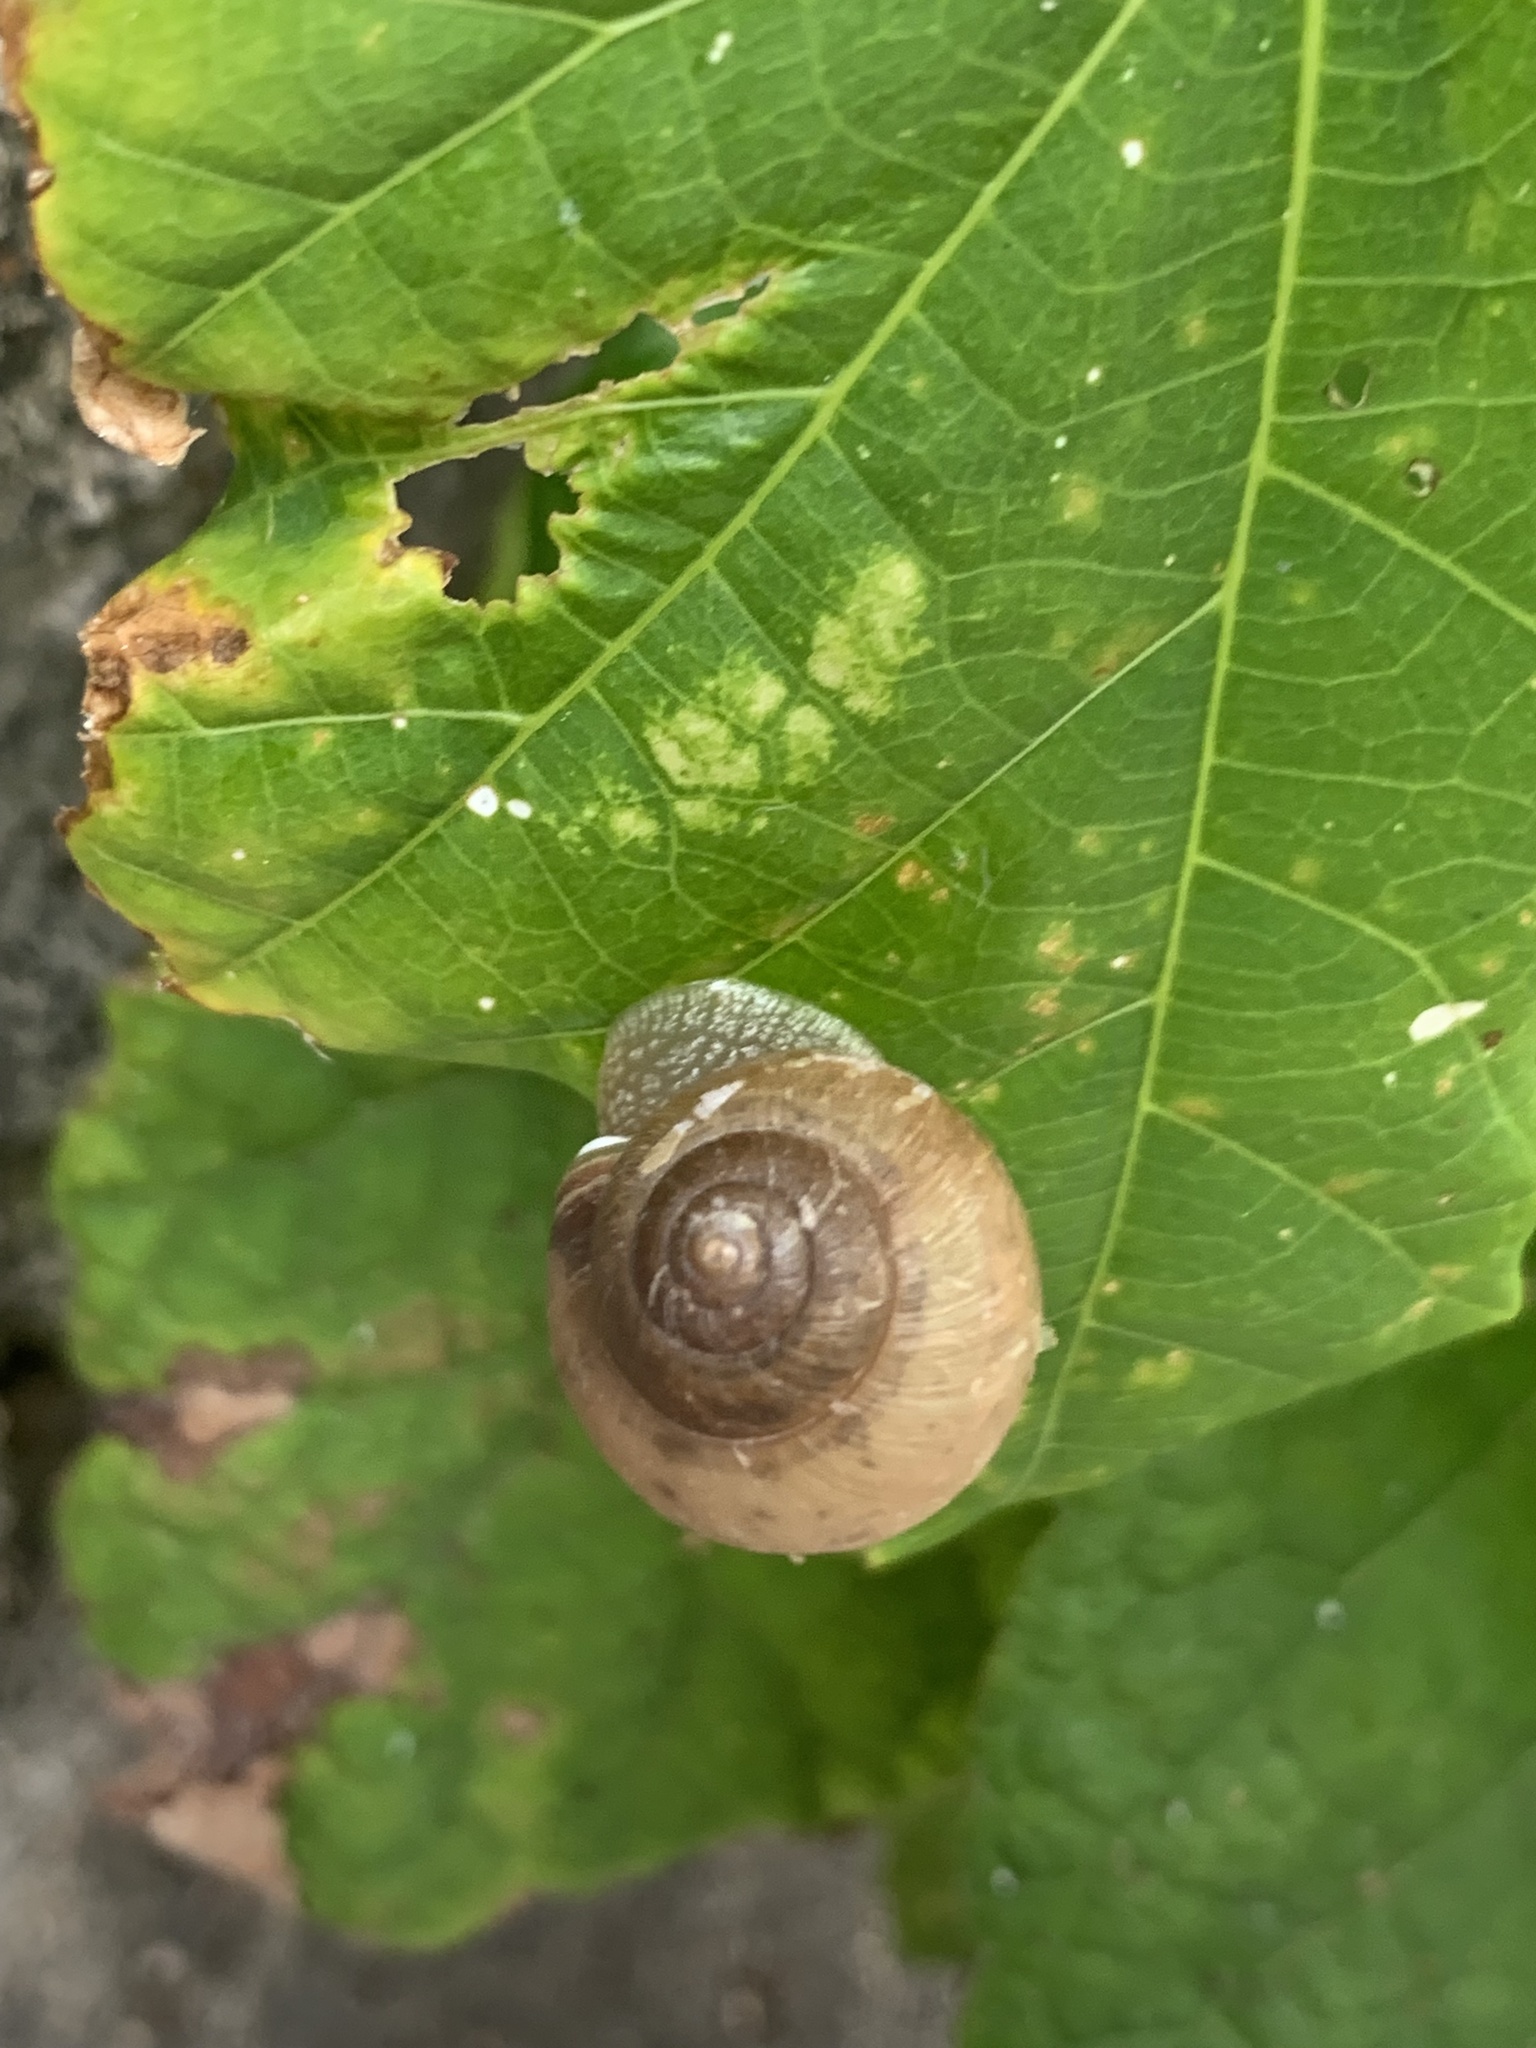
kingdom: Animalia
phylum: Mollusca
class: Gastropoda
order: Stylommatophora
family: Camaenidae
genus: Acusta
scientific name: Acusta despecta
